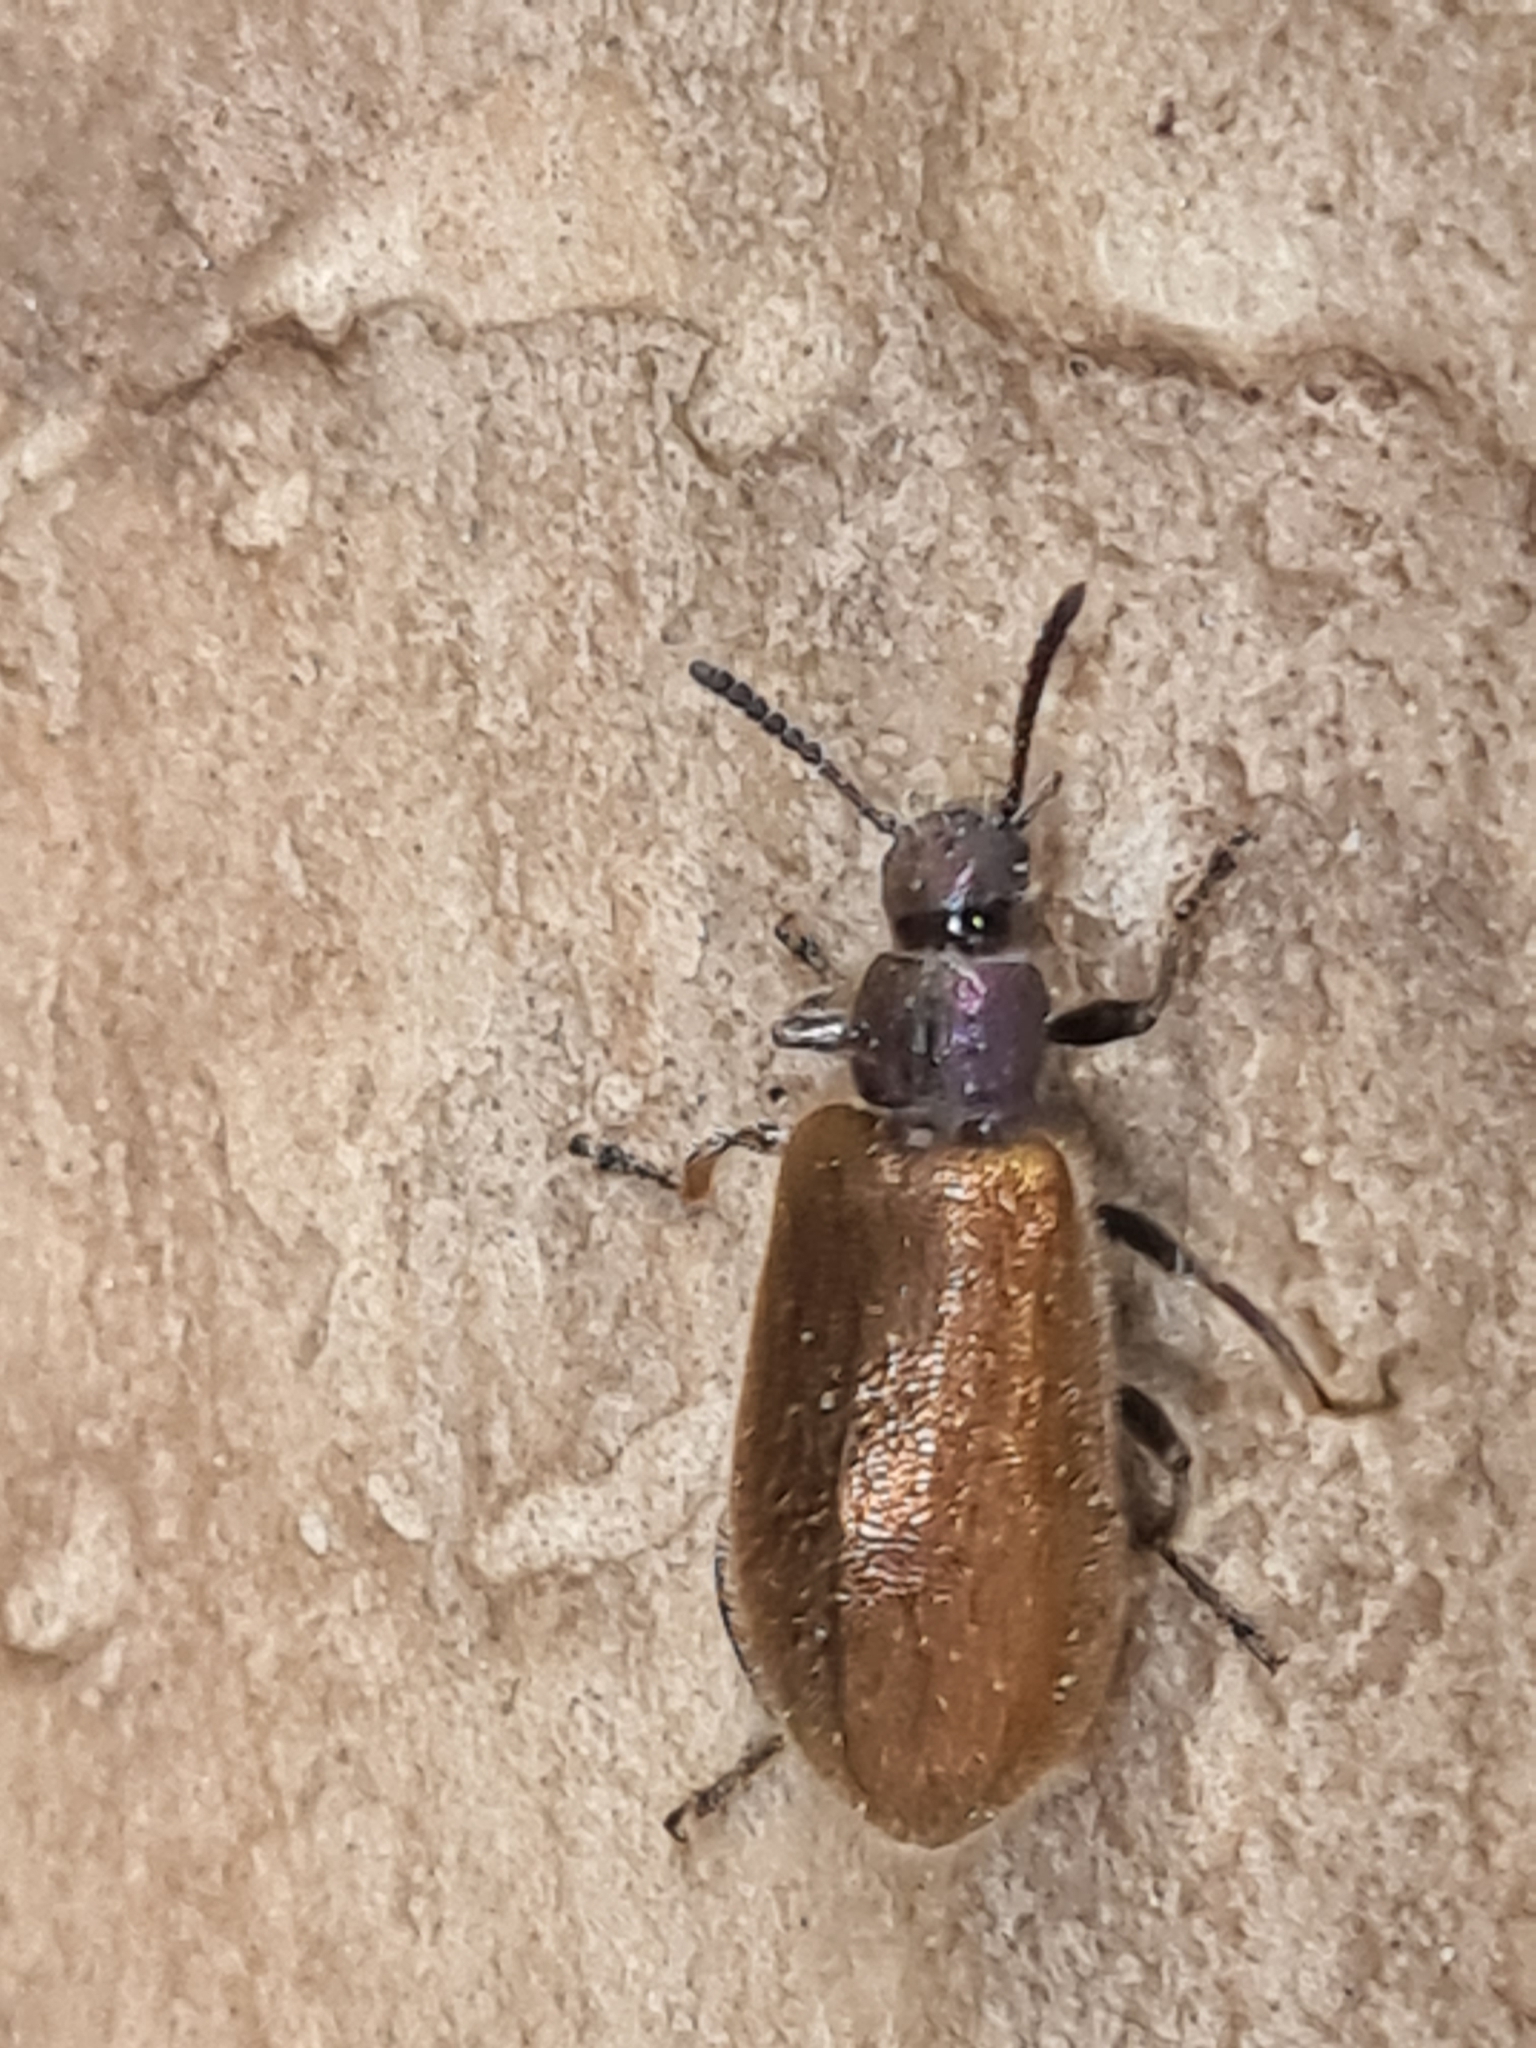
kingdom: Animalia
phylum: Arthropoda
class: Insecta
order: Coleoptera
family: Tenebrionidae
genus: Lagria
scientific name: Lagria villosa
